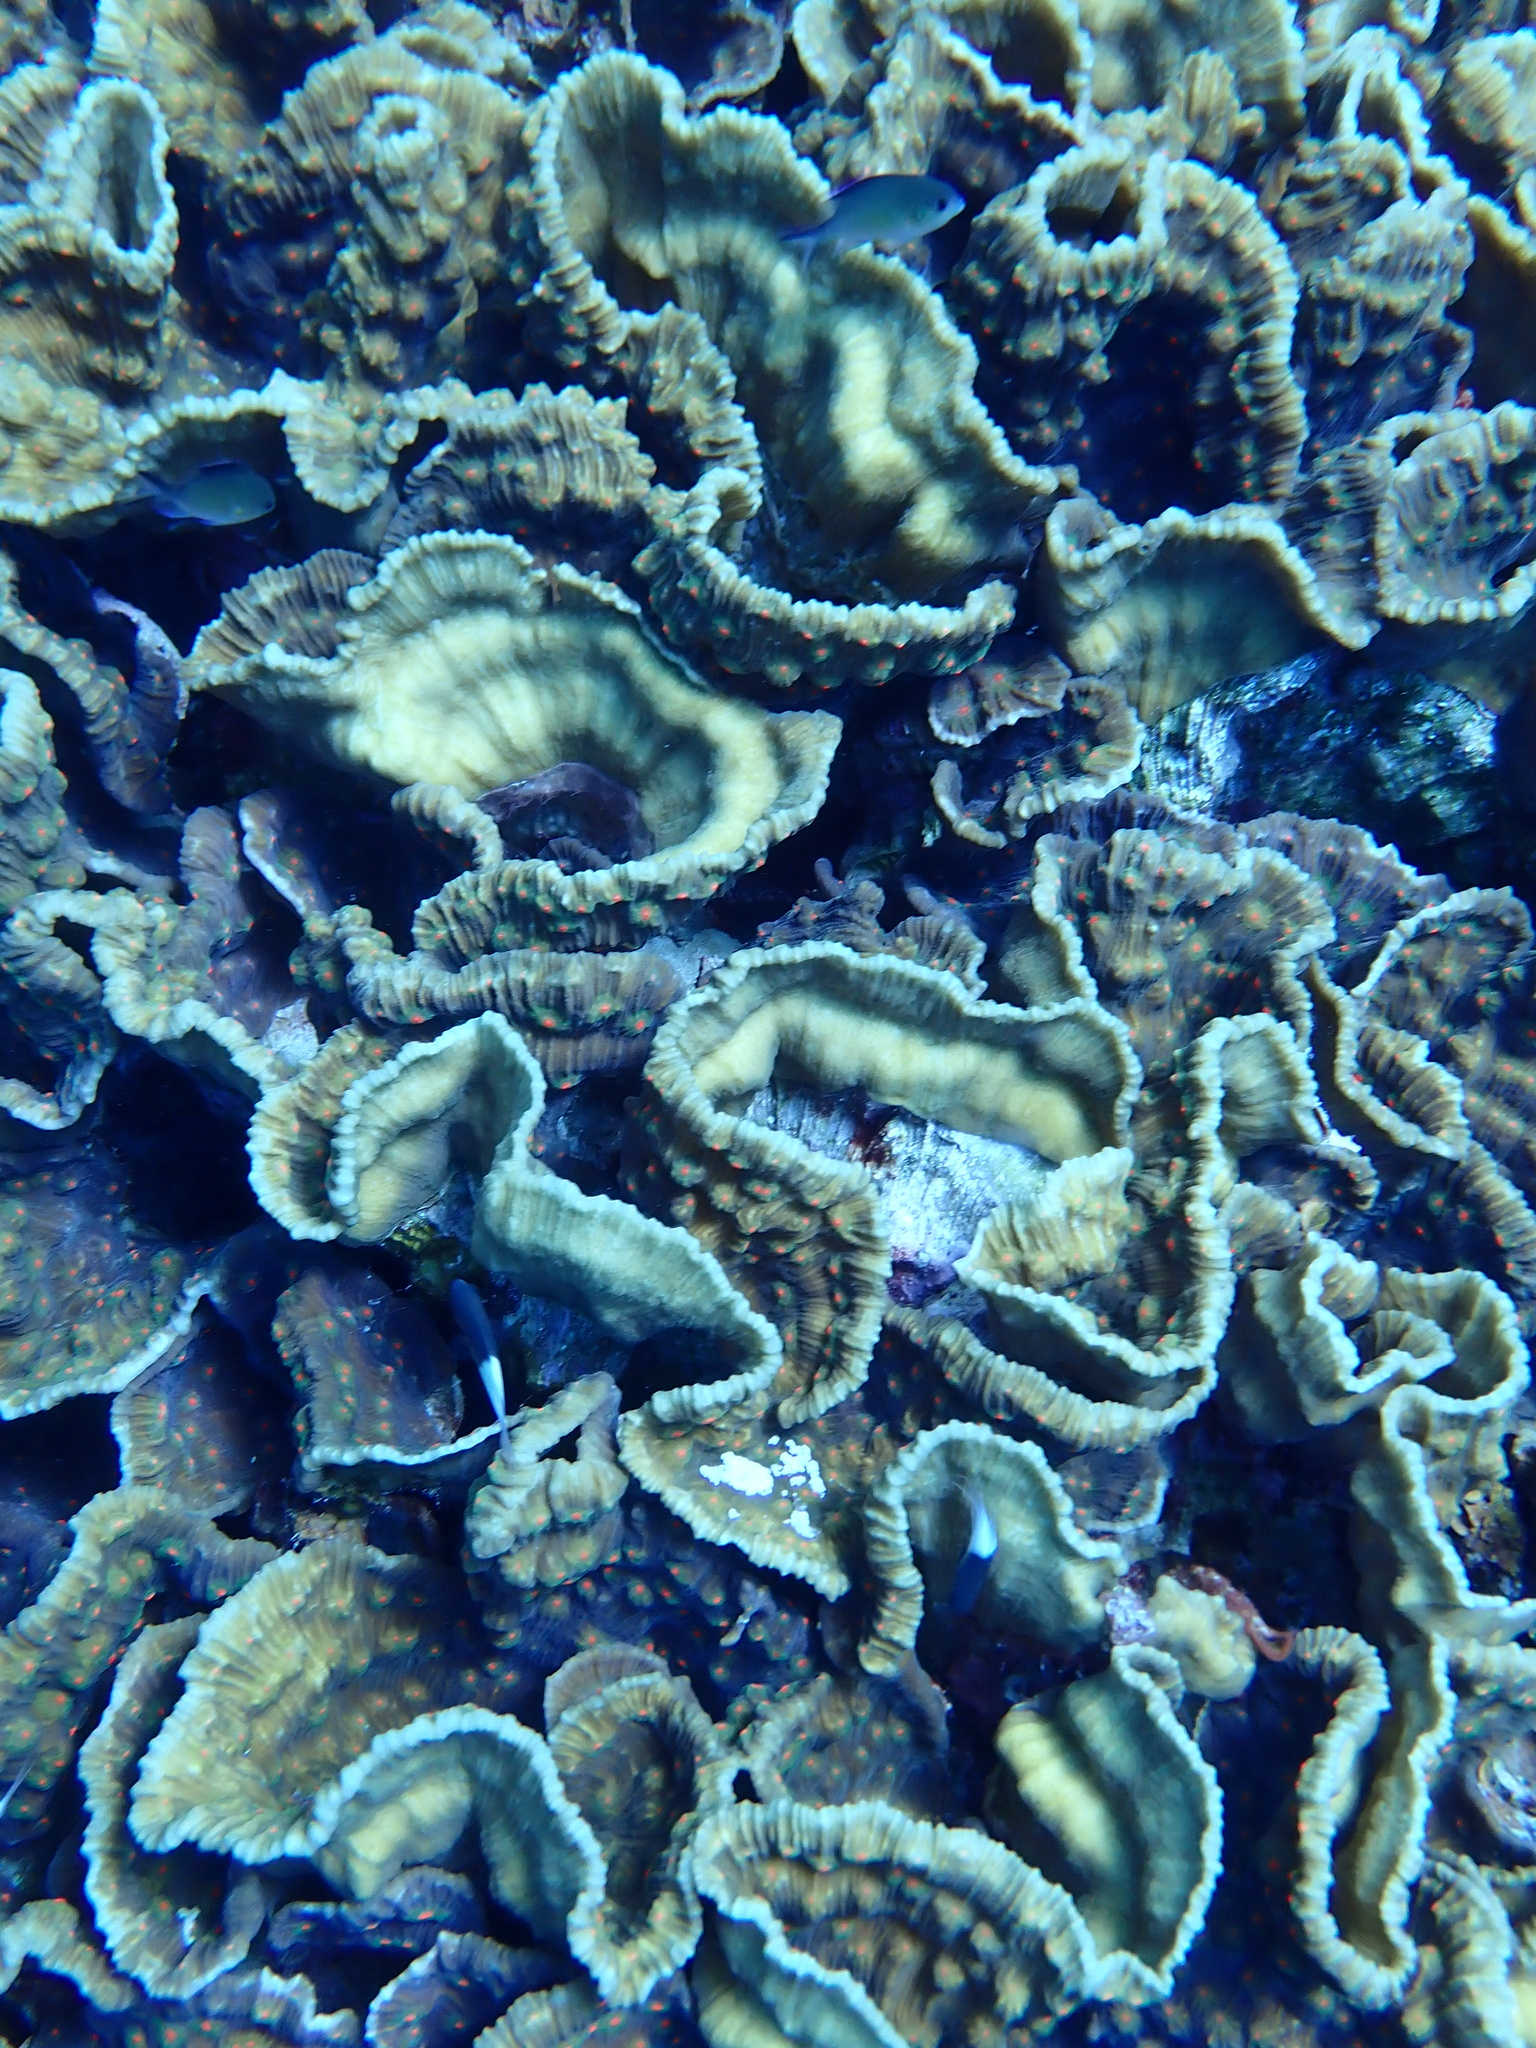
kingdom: Animalia
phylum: Cnidaria
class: Anthozoa
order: Scleractinia
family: Merulinidae
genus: Mycedium
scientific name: Mycedium umbra
